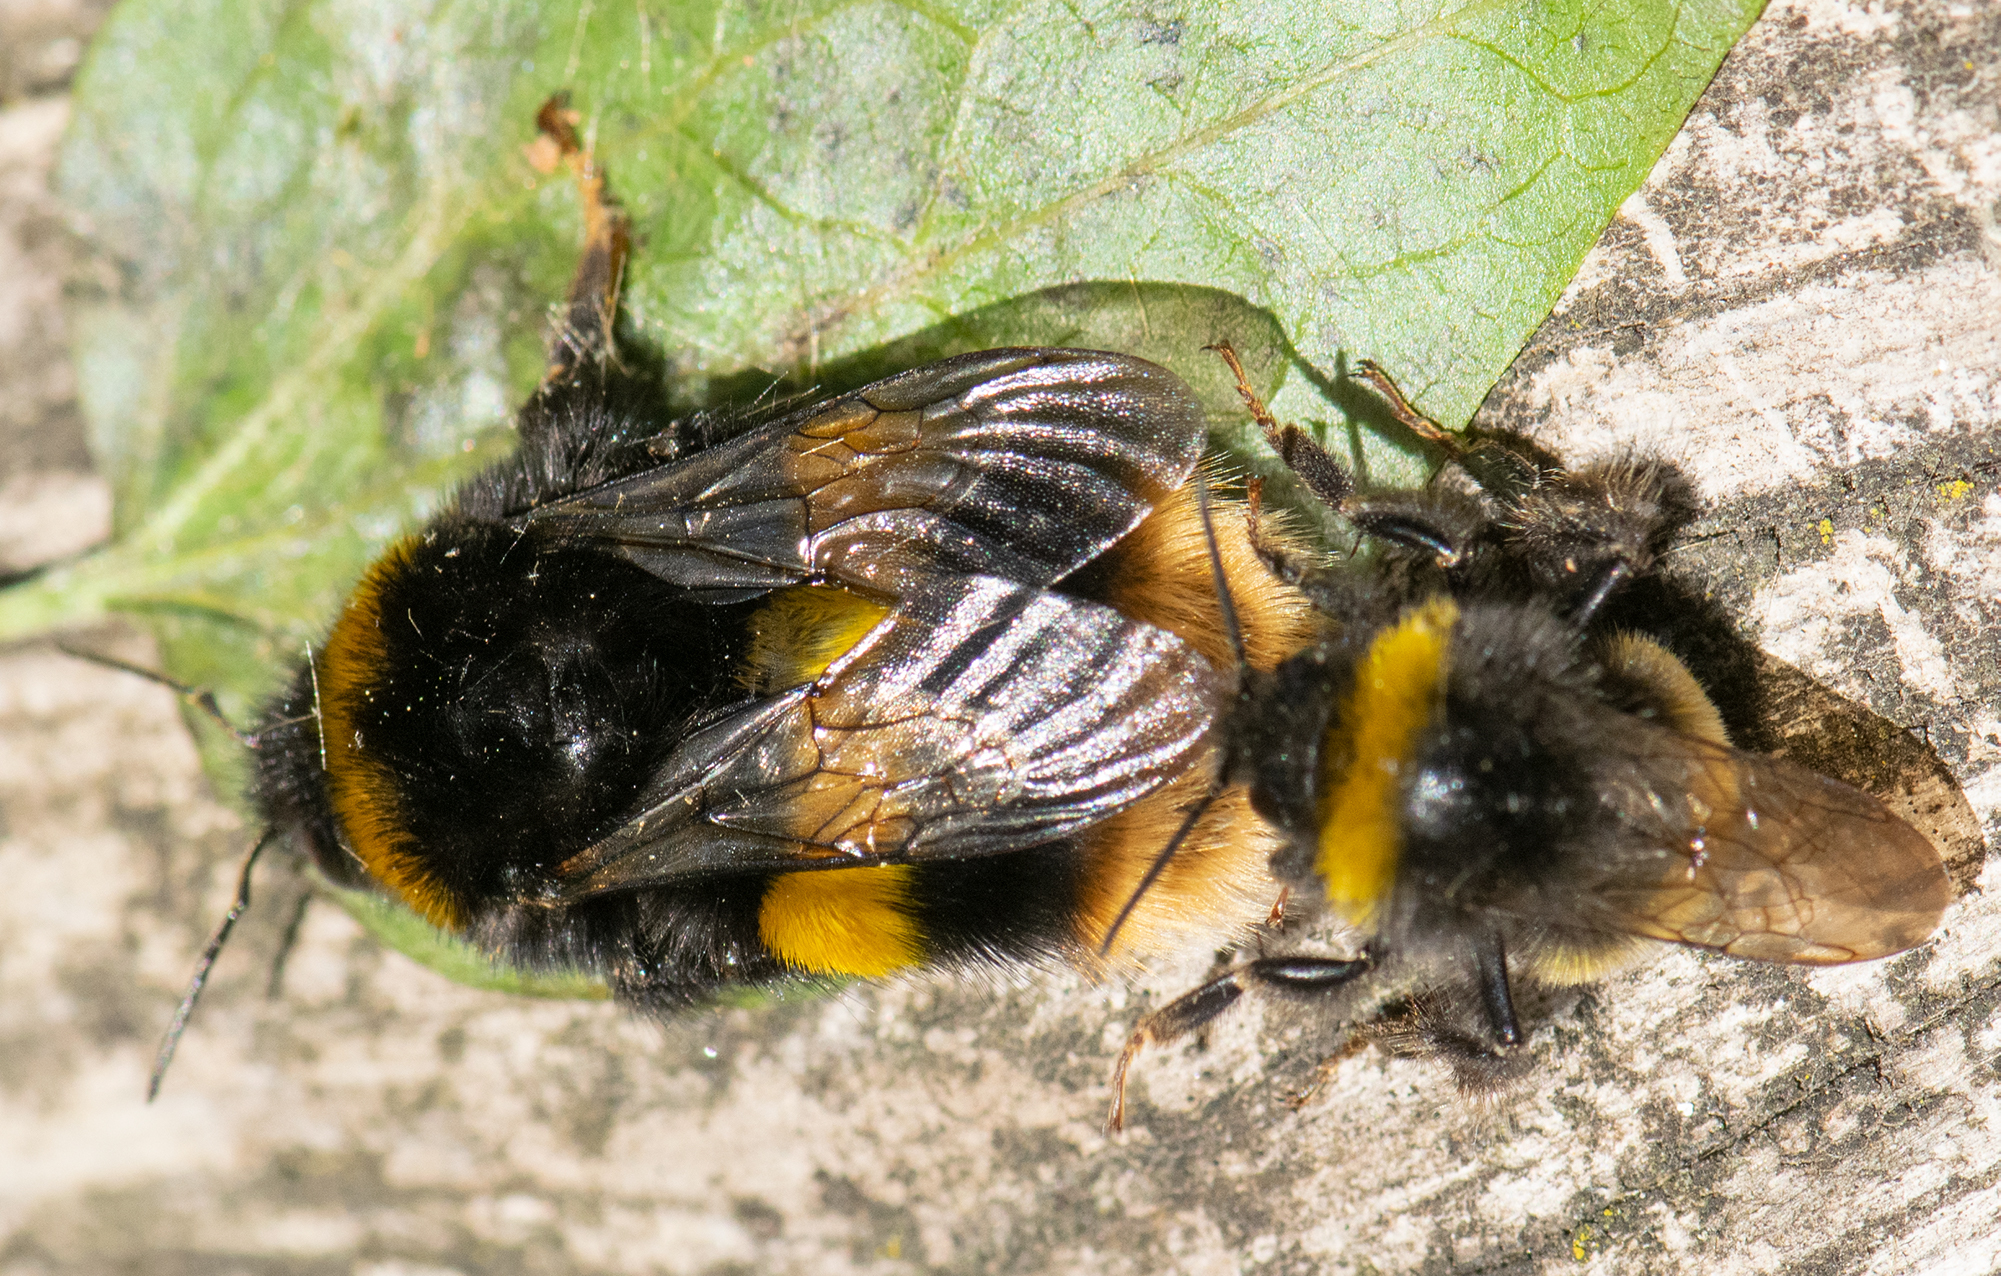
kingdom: Animalia
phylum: Arthropoda
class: Insecta
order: Hymenoptera
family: Apidae
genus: Bombus
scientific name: Bombus terrestris
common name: Buff-tailed bumblebee
